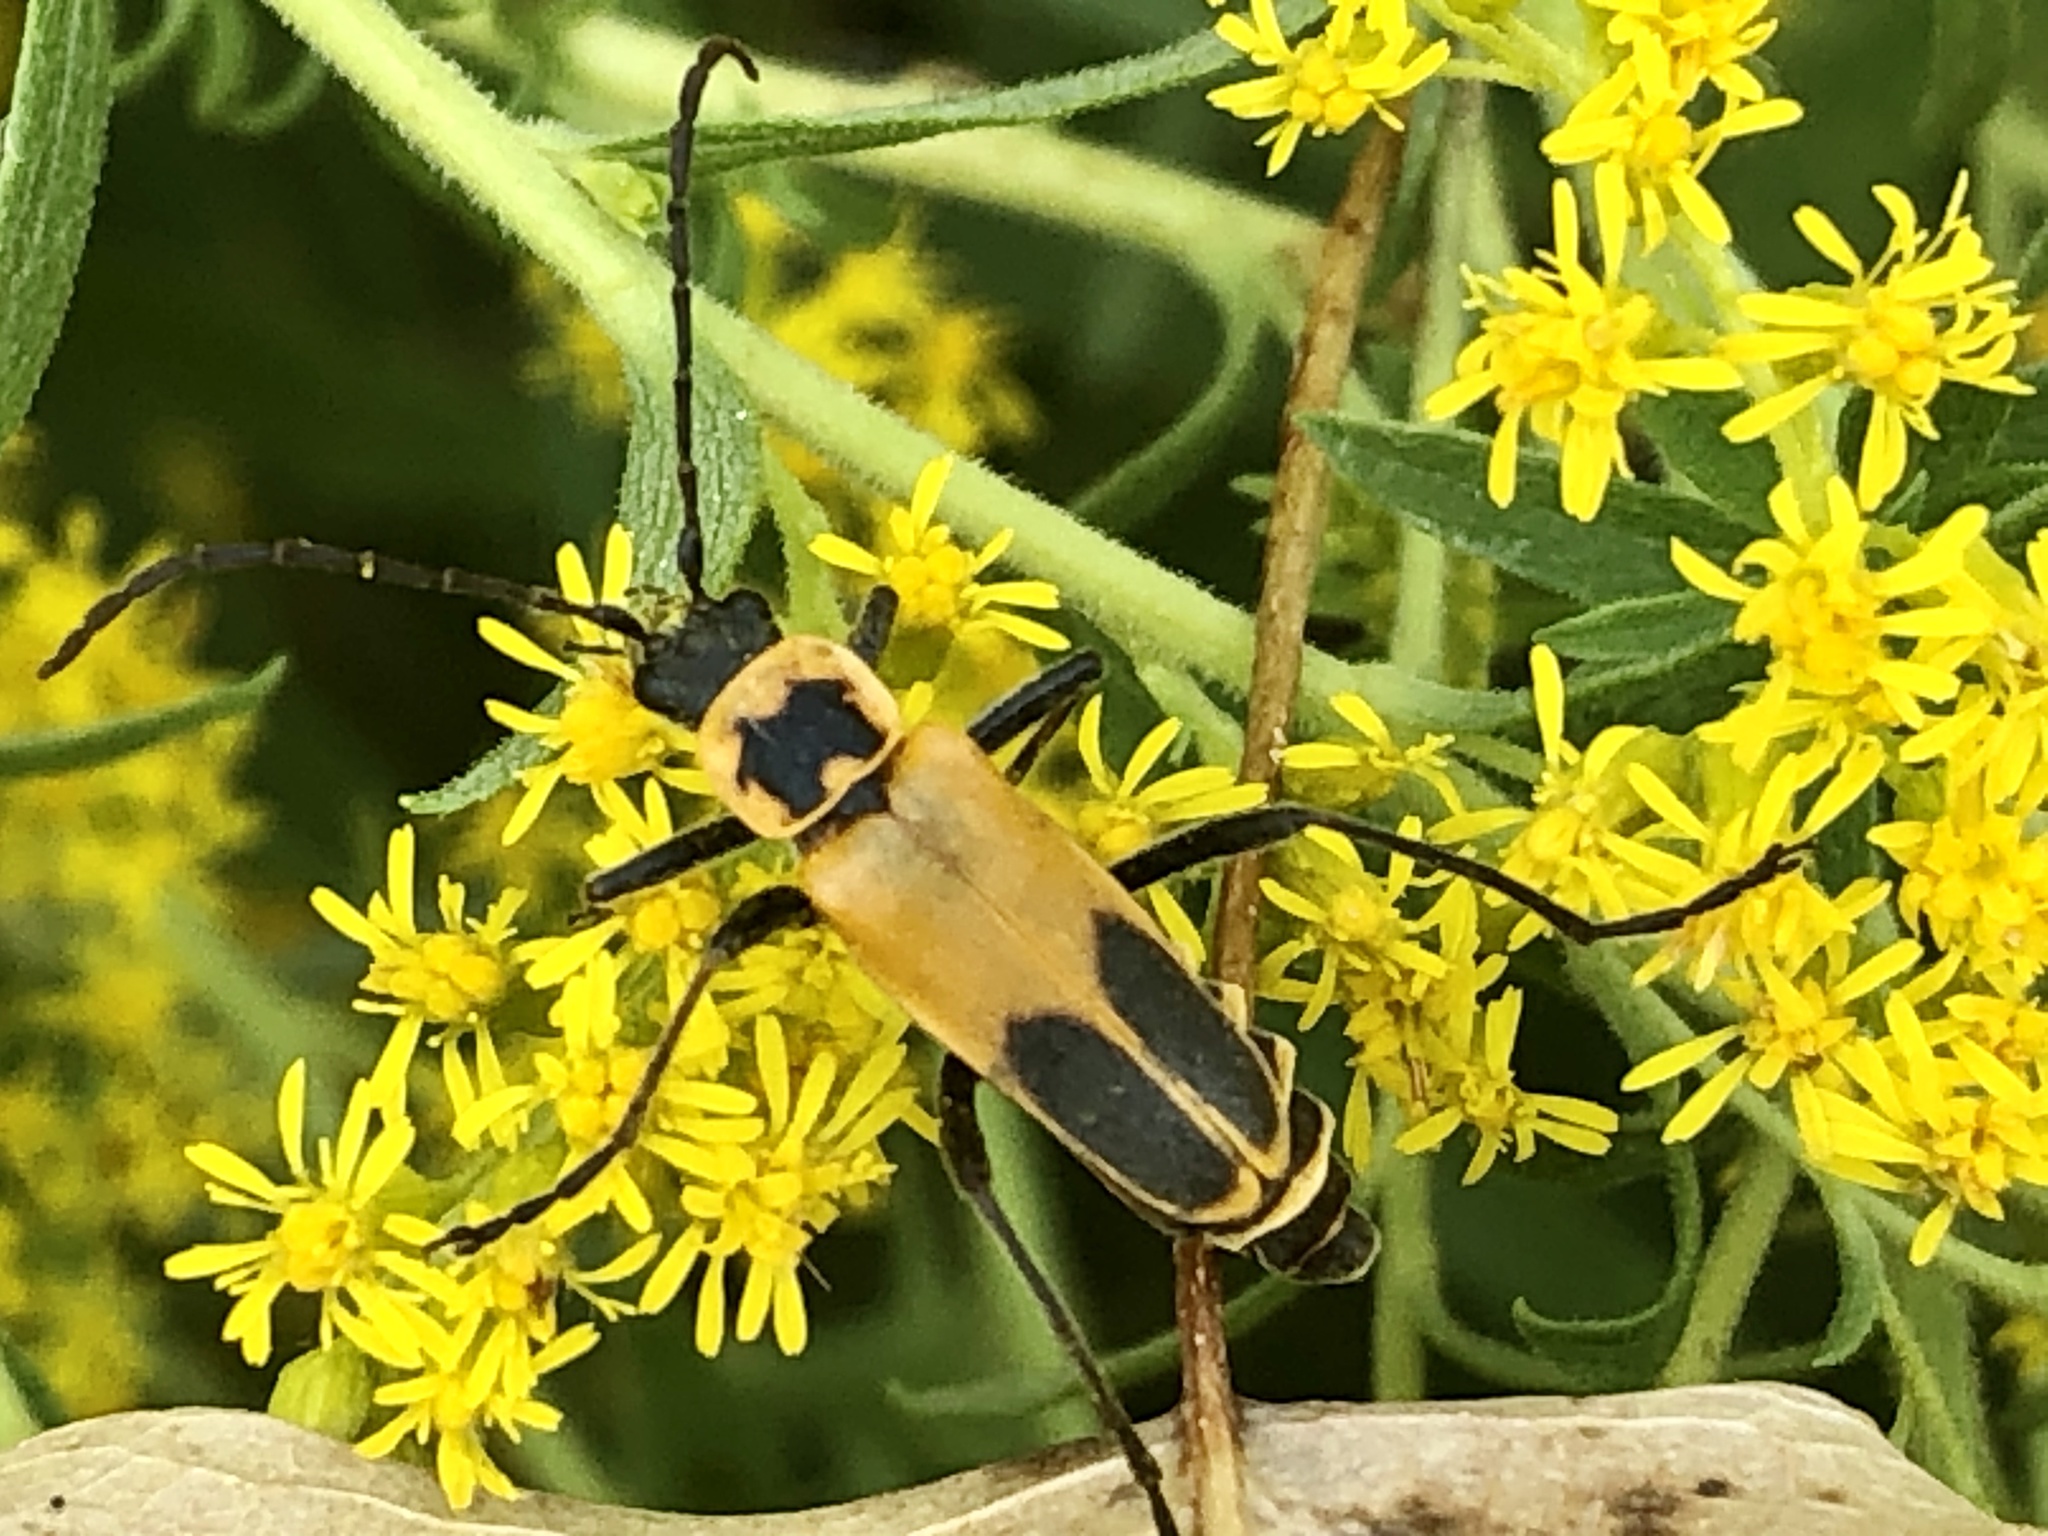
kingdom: Animalia
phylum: Arthropoda
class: Insecta
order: Coleoptera
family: Cantharidae
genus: Chauliognathus
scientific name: Chauliognathus pensylvanicus
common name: Goldenrod soldier beetle
